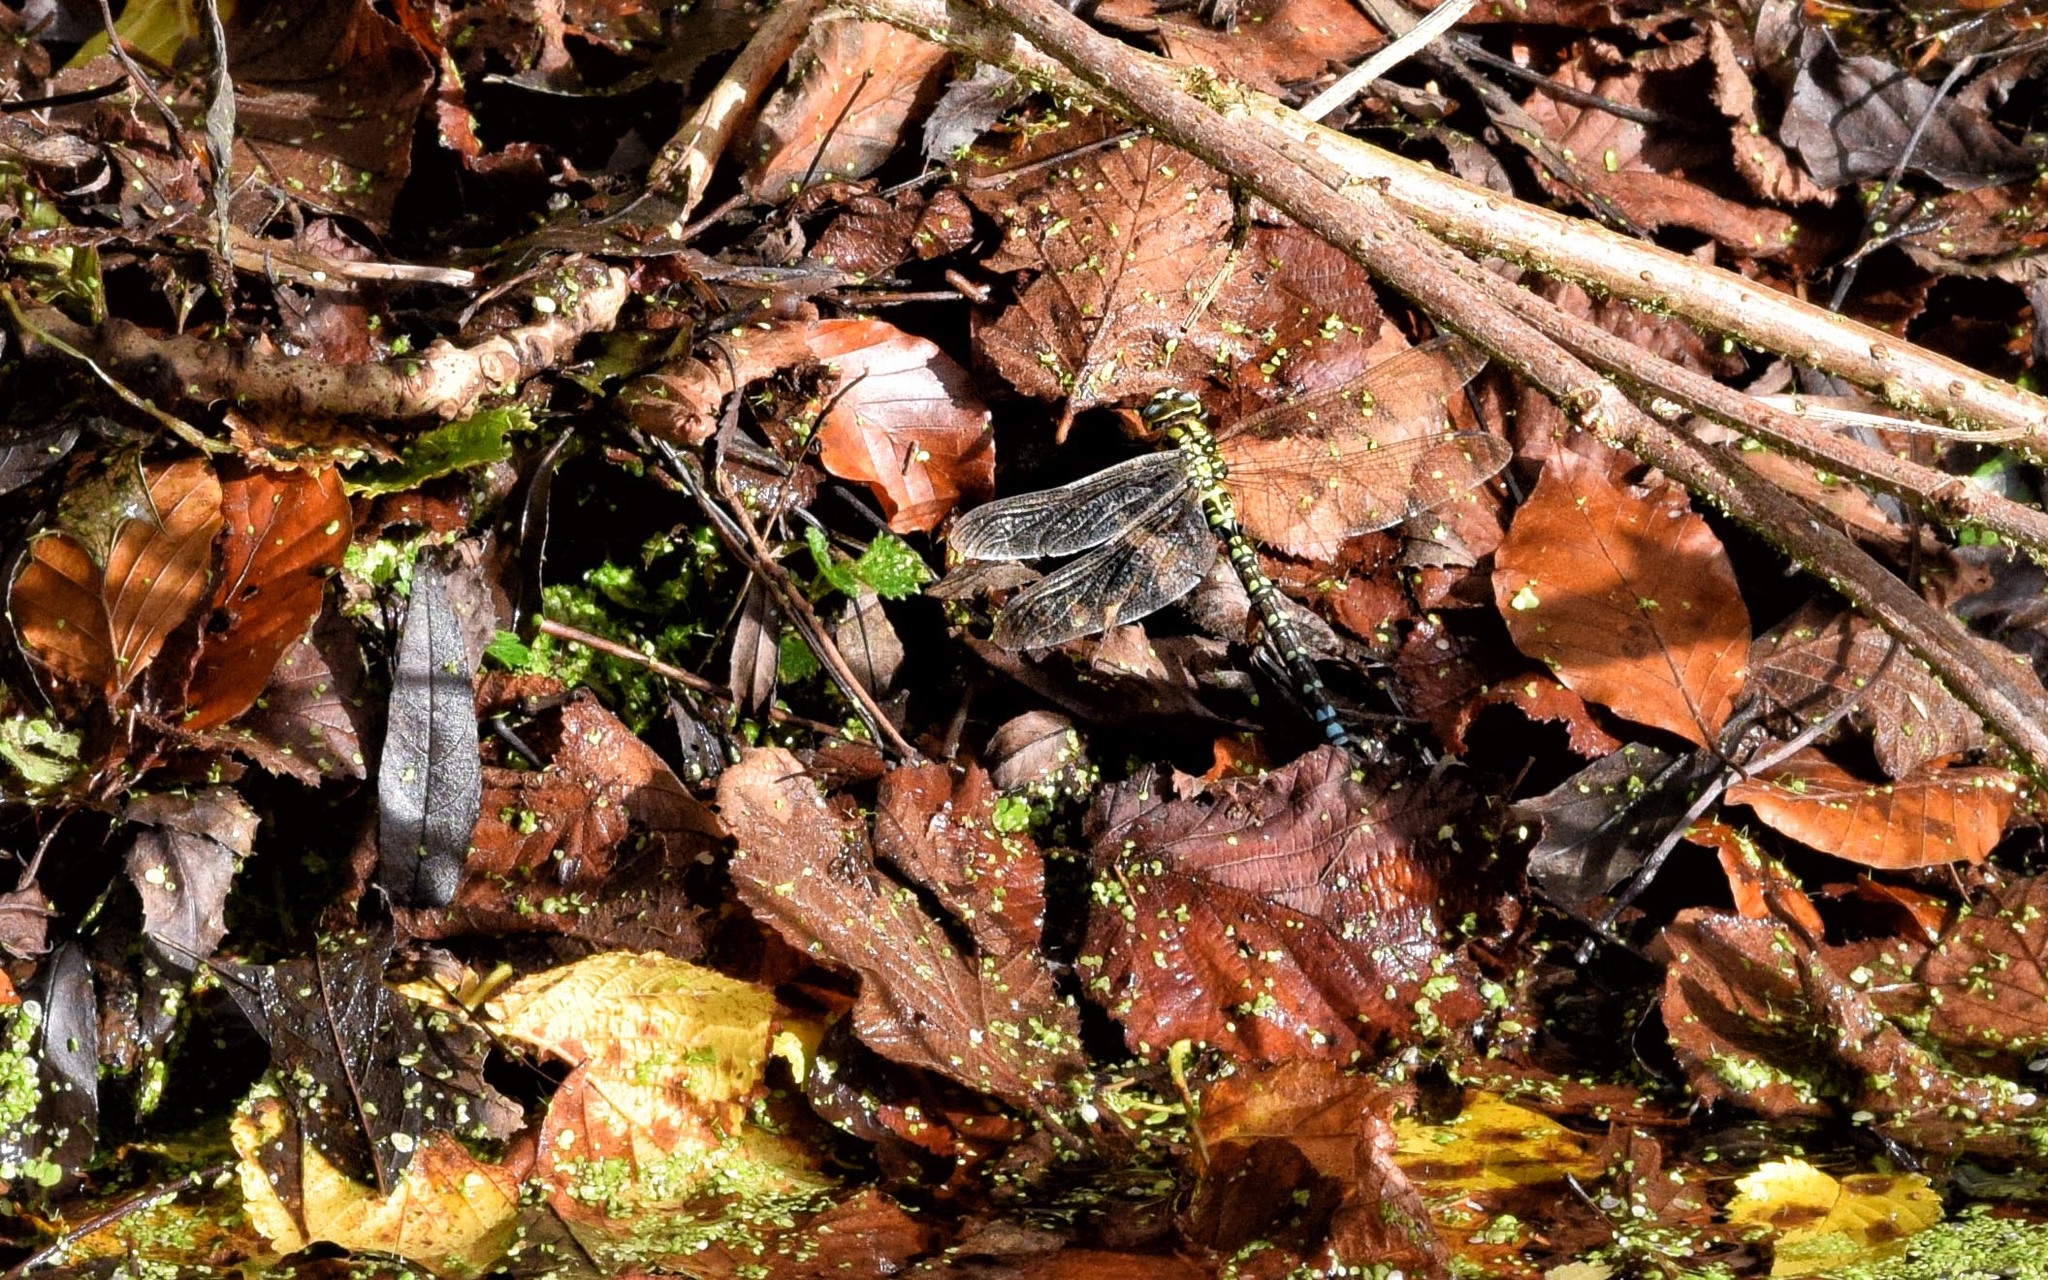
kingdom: Animalia
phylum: Arthropoda
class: Insecta
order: Odonata
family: Aeshnidae
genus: Aeshna
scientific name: Aeshna cyanea
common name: Southern hawker
